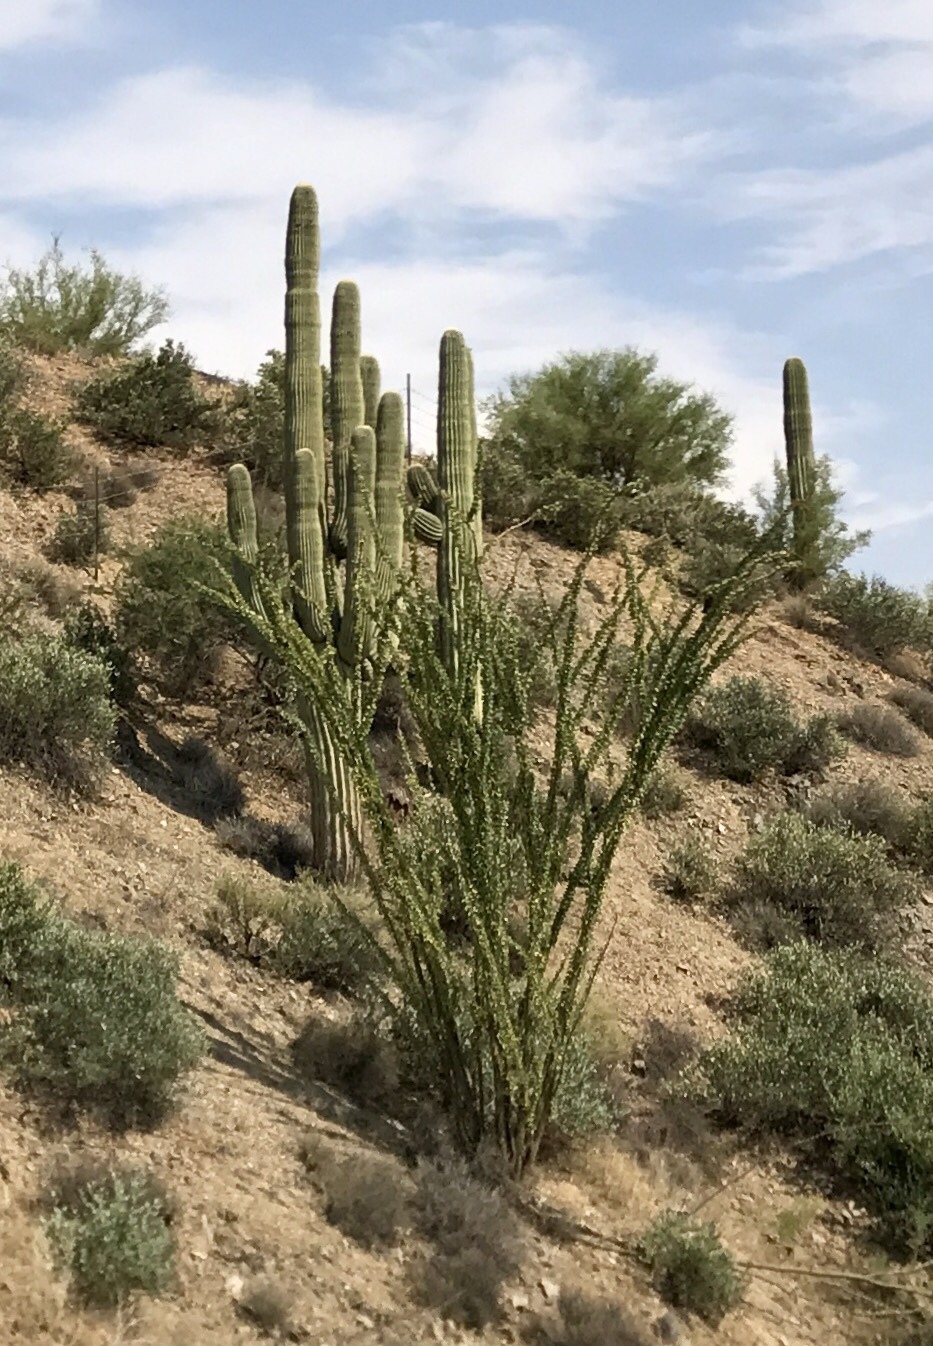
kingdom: Plantae
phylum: Tracheophyta
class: Magnoliopsida
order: Ericales
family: Fouquieriaceae
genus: Fouquieria
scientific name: Fouquieria splendens
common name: Vine-cactus
